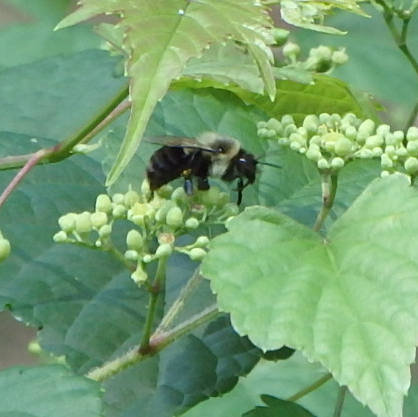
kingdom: Animalia
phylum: Arthropoda
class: Insecta
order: Hymenoptera
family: Apidae
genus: Bombus
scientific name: Bombus impatiens
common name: Common eastern bumble bee
